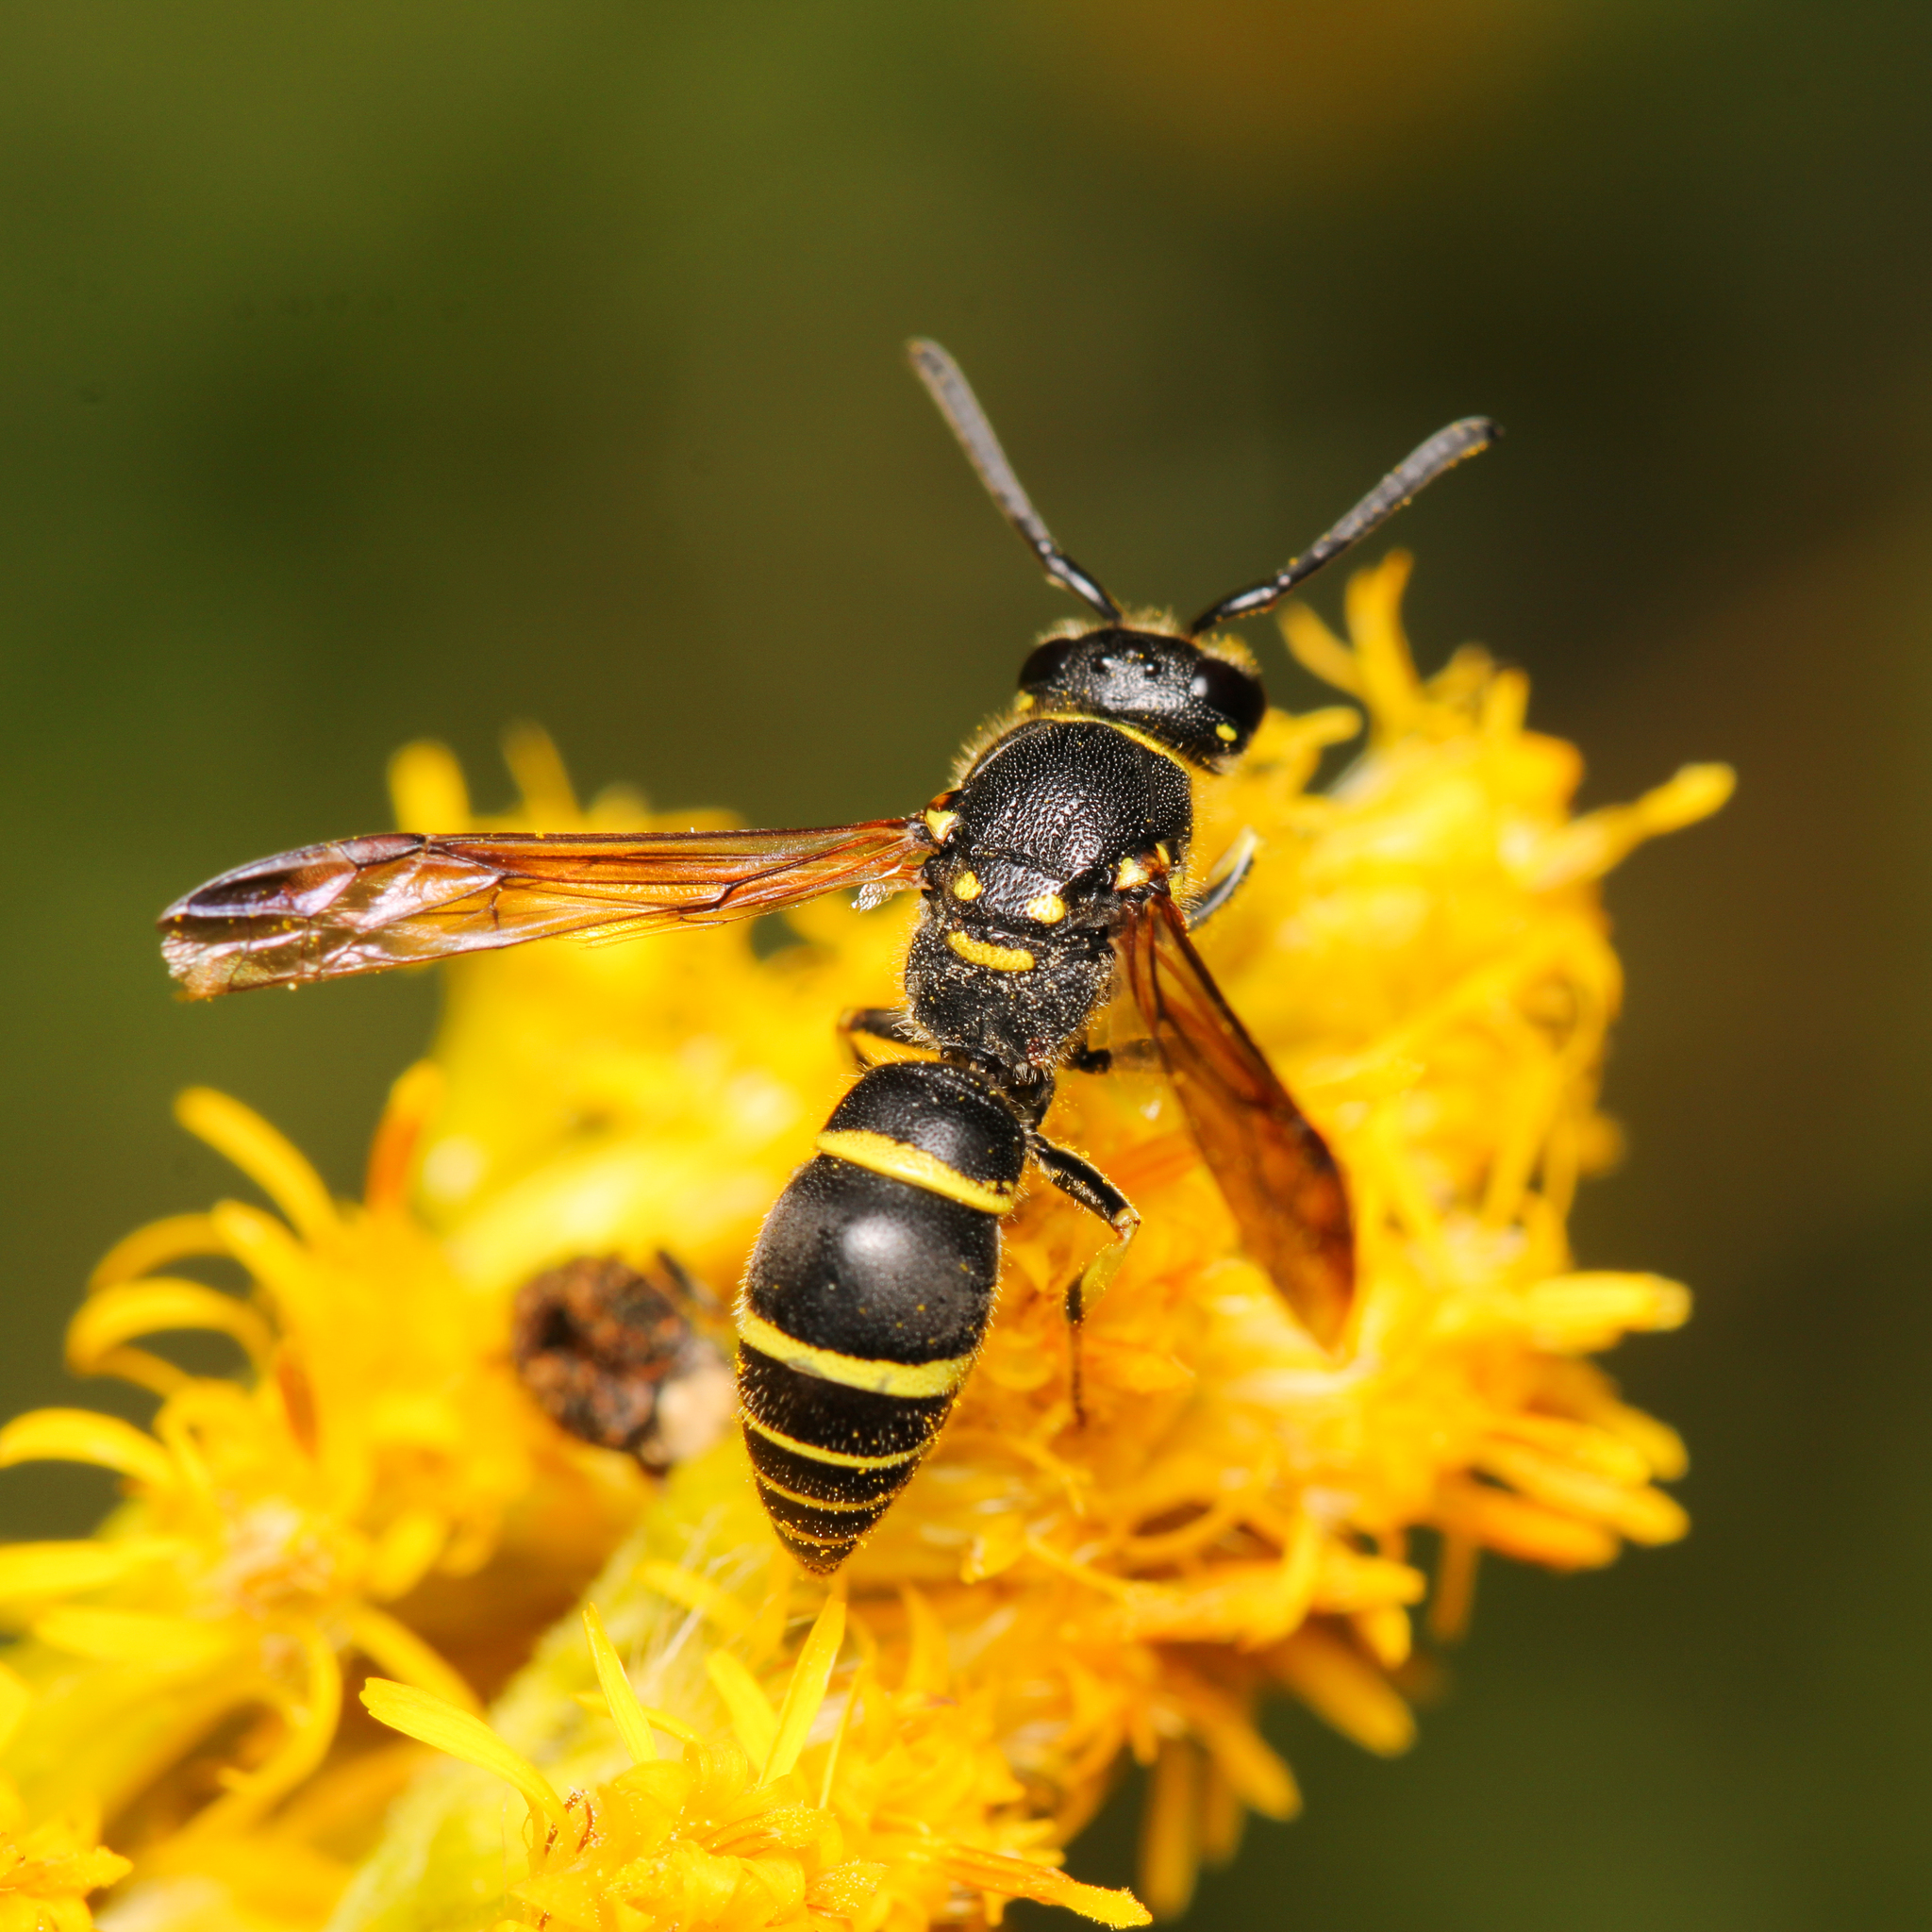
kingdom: Animalia
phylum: Arthropoda
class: Insecta
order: Hymenoptera
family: Vespidae
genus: Ancistrocerus
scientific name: Ancistrocerus adiabatus
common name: Bramble mason wasp
